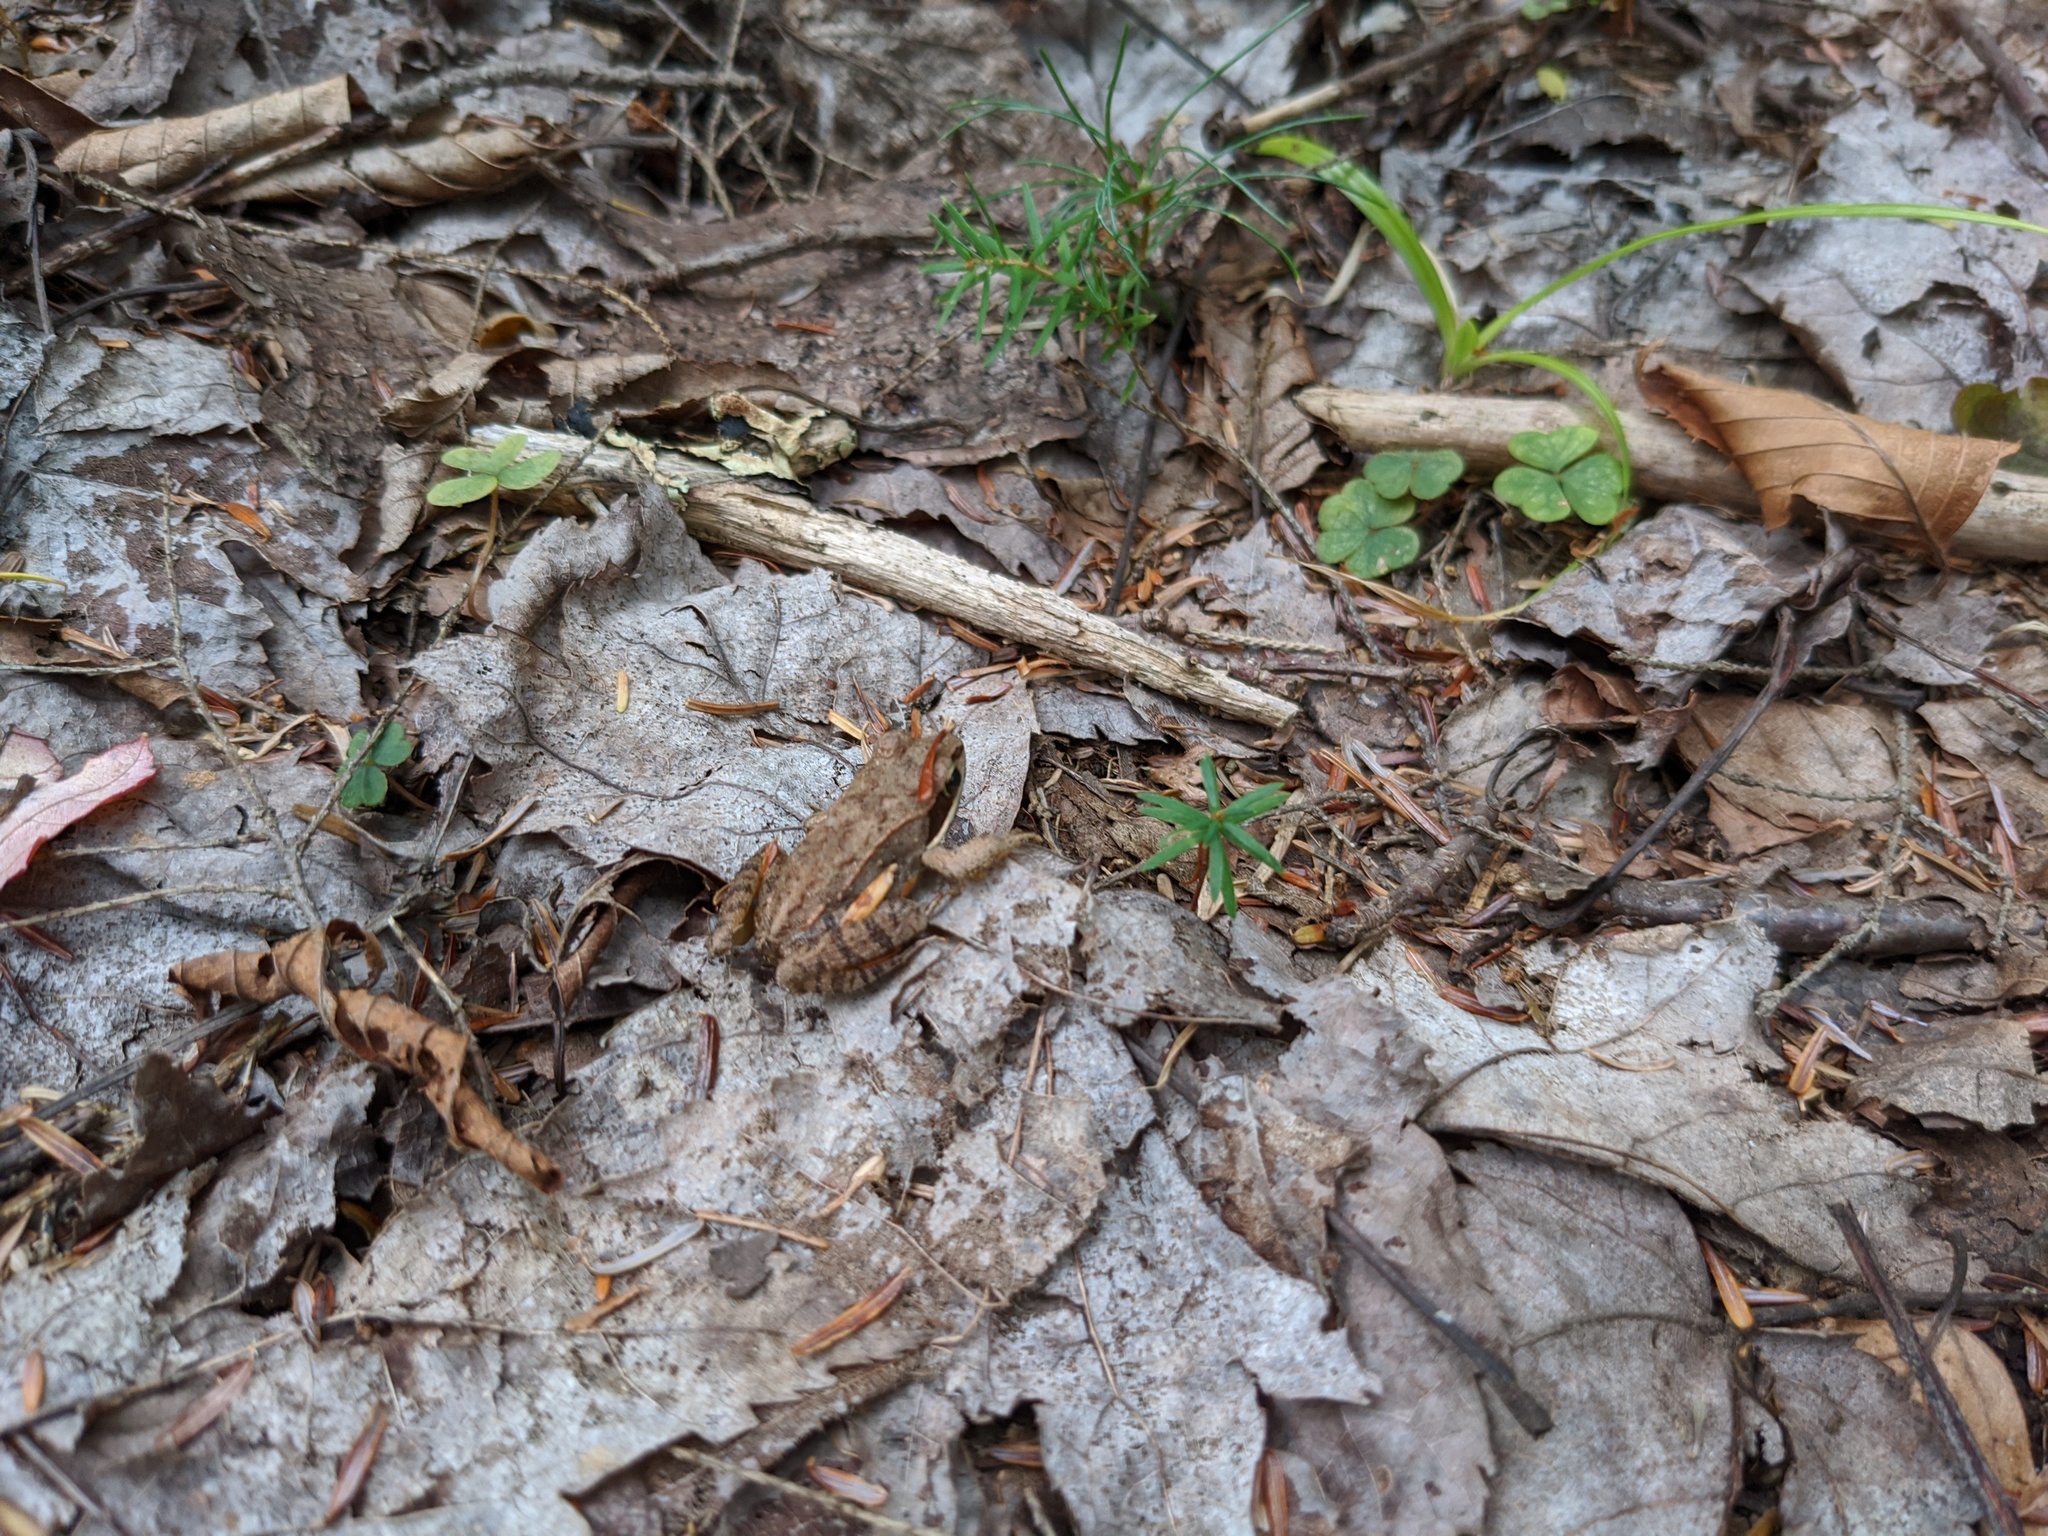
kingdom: Animalia
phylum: Chordata
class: Amphibia
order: Anura
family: Ranidae
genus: Lithobates
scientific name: Lithobates sylvaticus
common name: Wood frog
